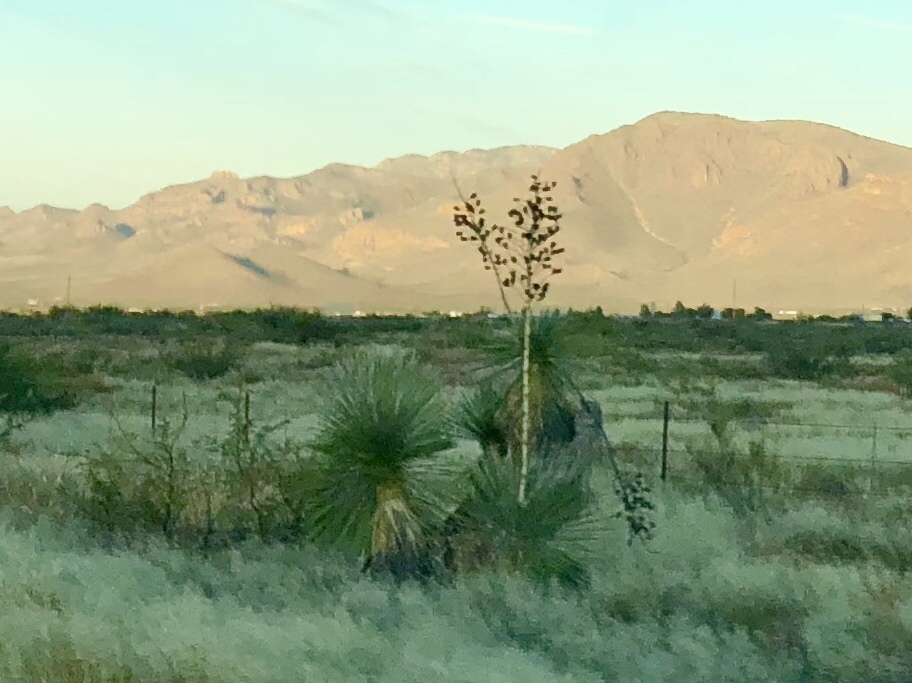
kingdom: Plantae
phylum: Tracheophyta
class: Liliopsida
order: Asparagales
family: Asparagaceae
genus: Yucca
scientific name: Yucca elata
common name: Palmella
